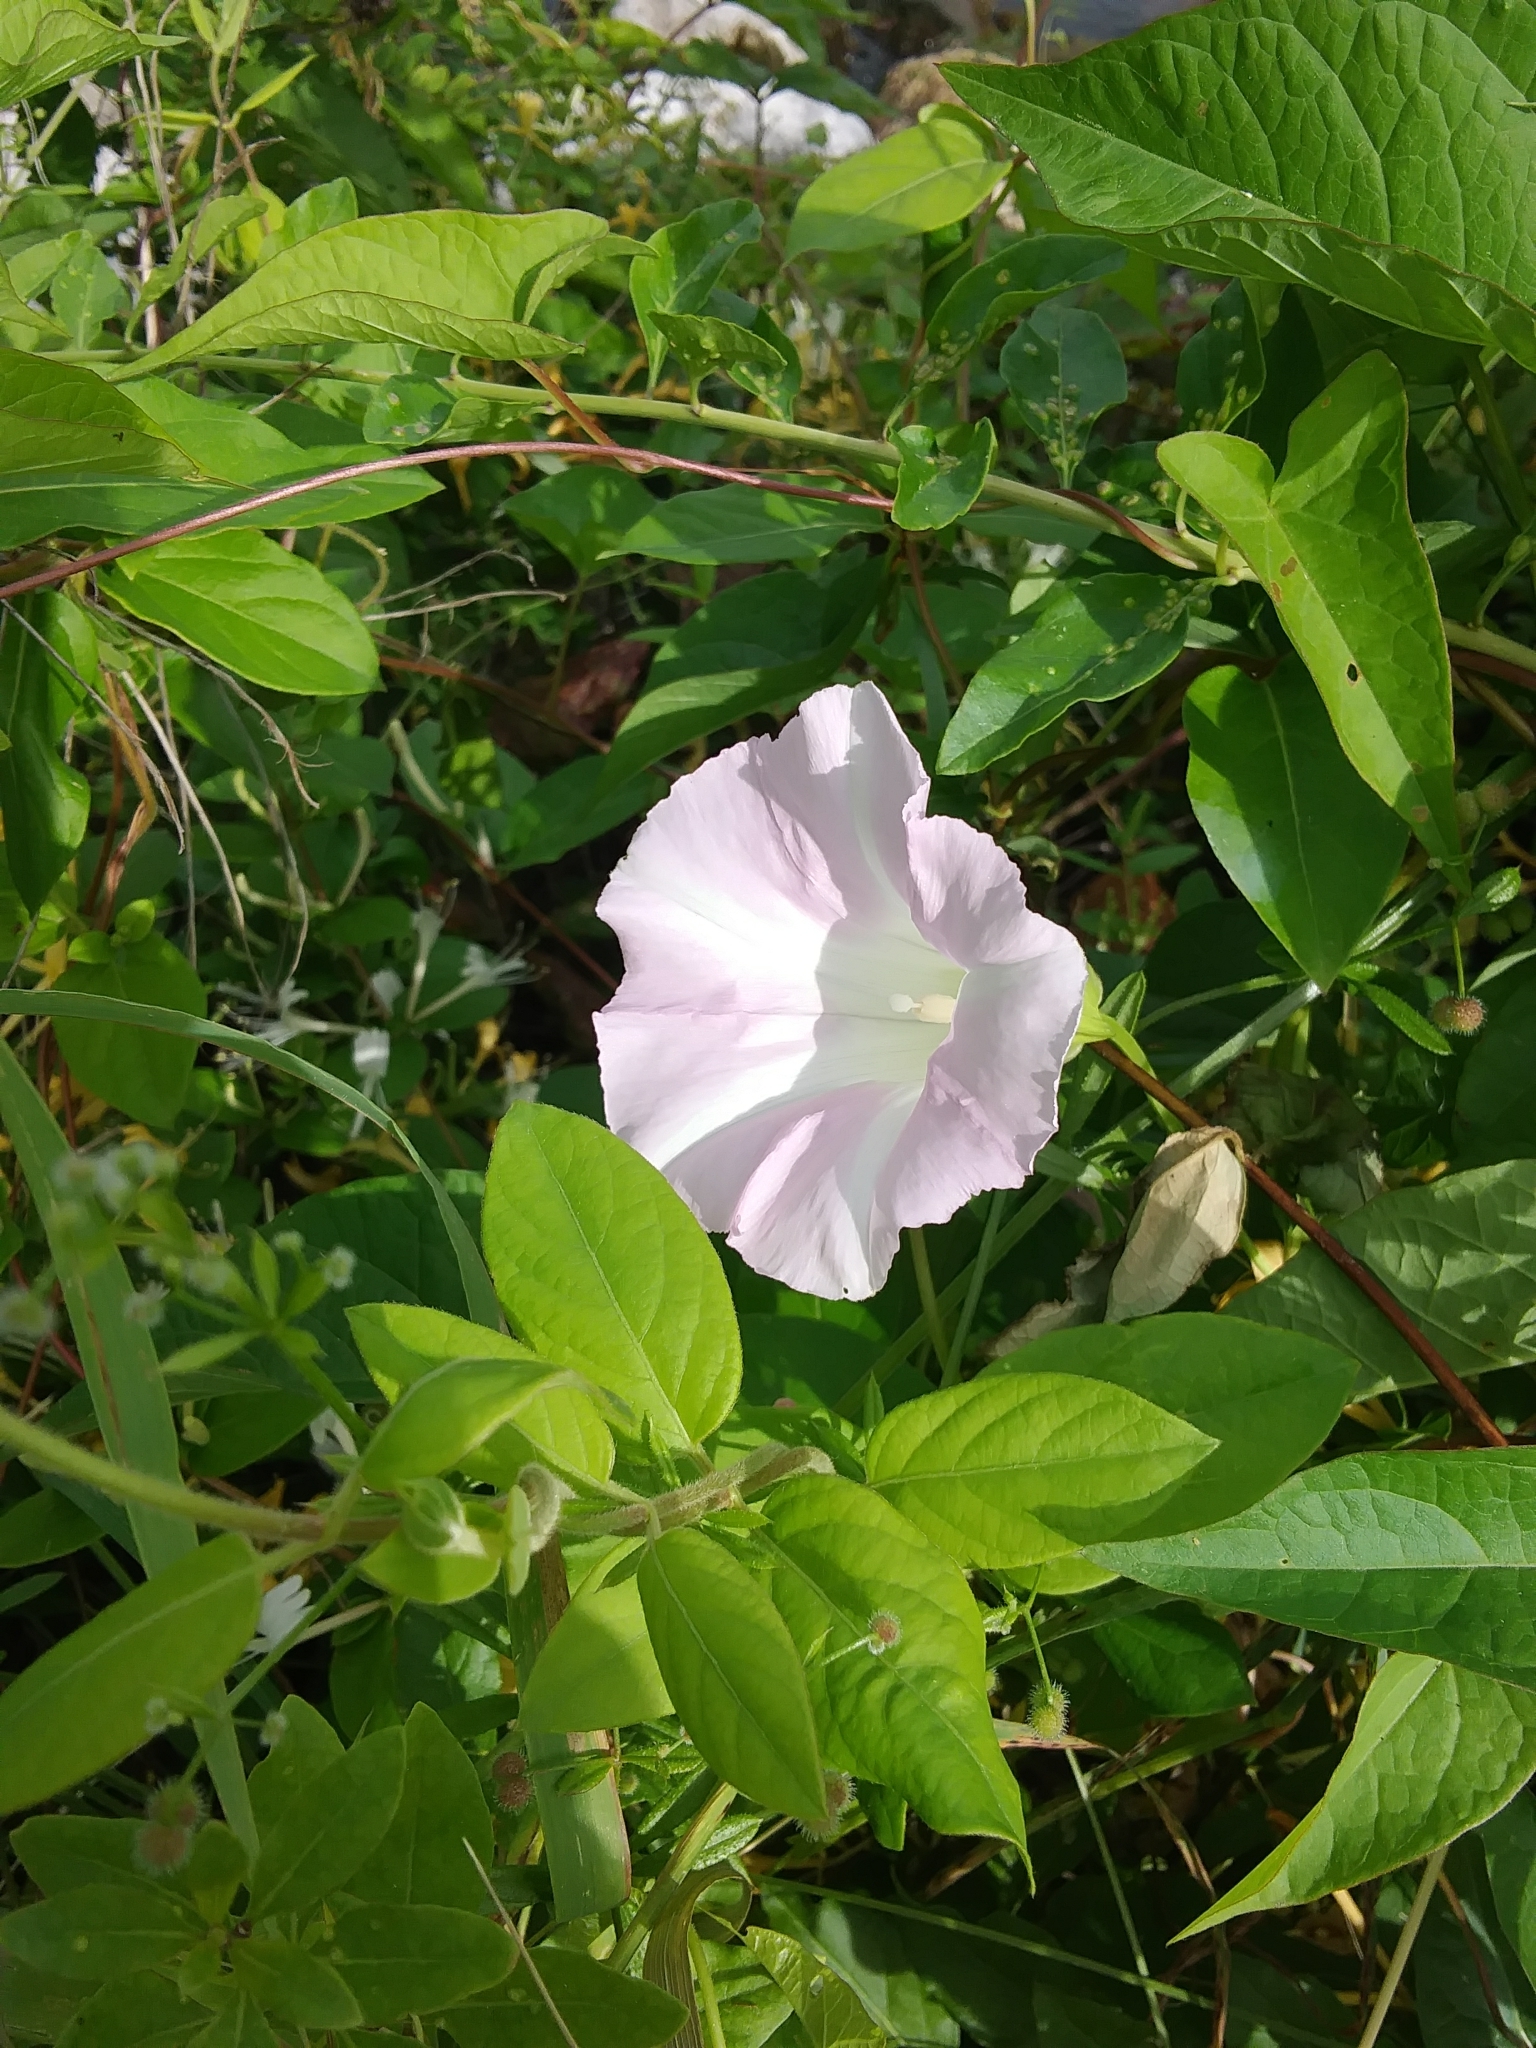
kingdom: Plantae
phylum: Tracheophyta
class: Magnoliopsida
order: Solanales
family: Convolvulaceae
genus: Calystegia
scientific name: Calystegia sepium
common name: Hedge bindweed
